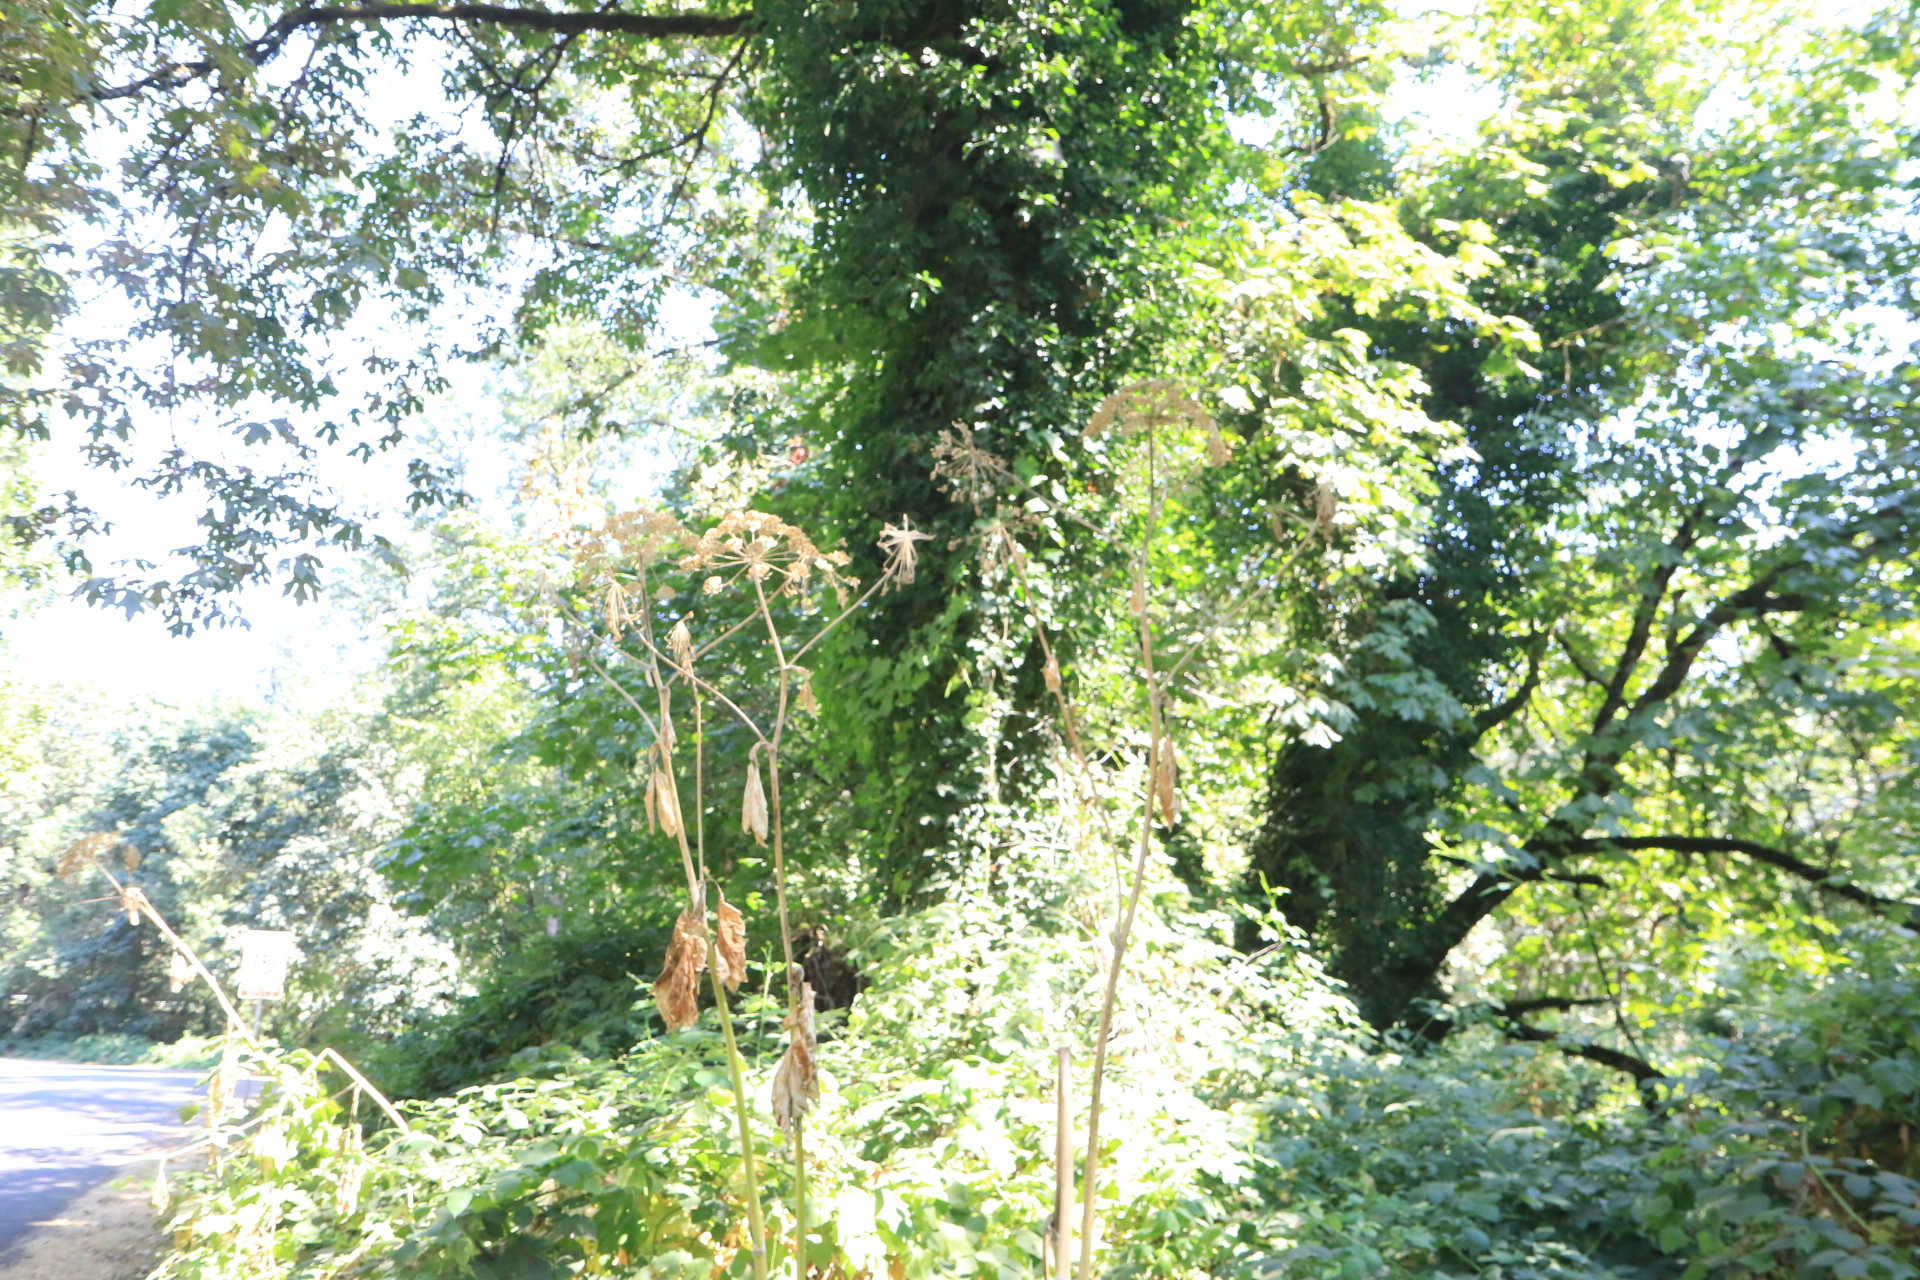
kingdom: Plantae
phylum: Tracheophyta
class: Magnoliopsida
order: Apiales
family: Apiaceae
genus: Heracleum
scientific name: Heracleum maximum
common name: American cow parsnip
